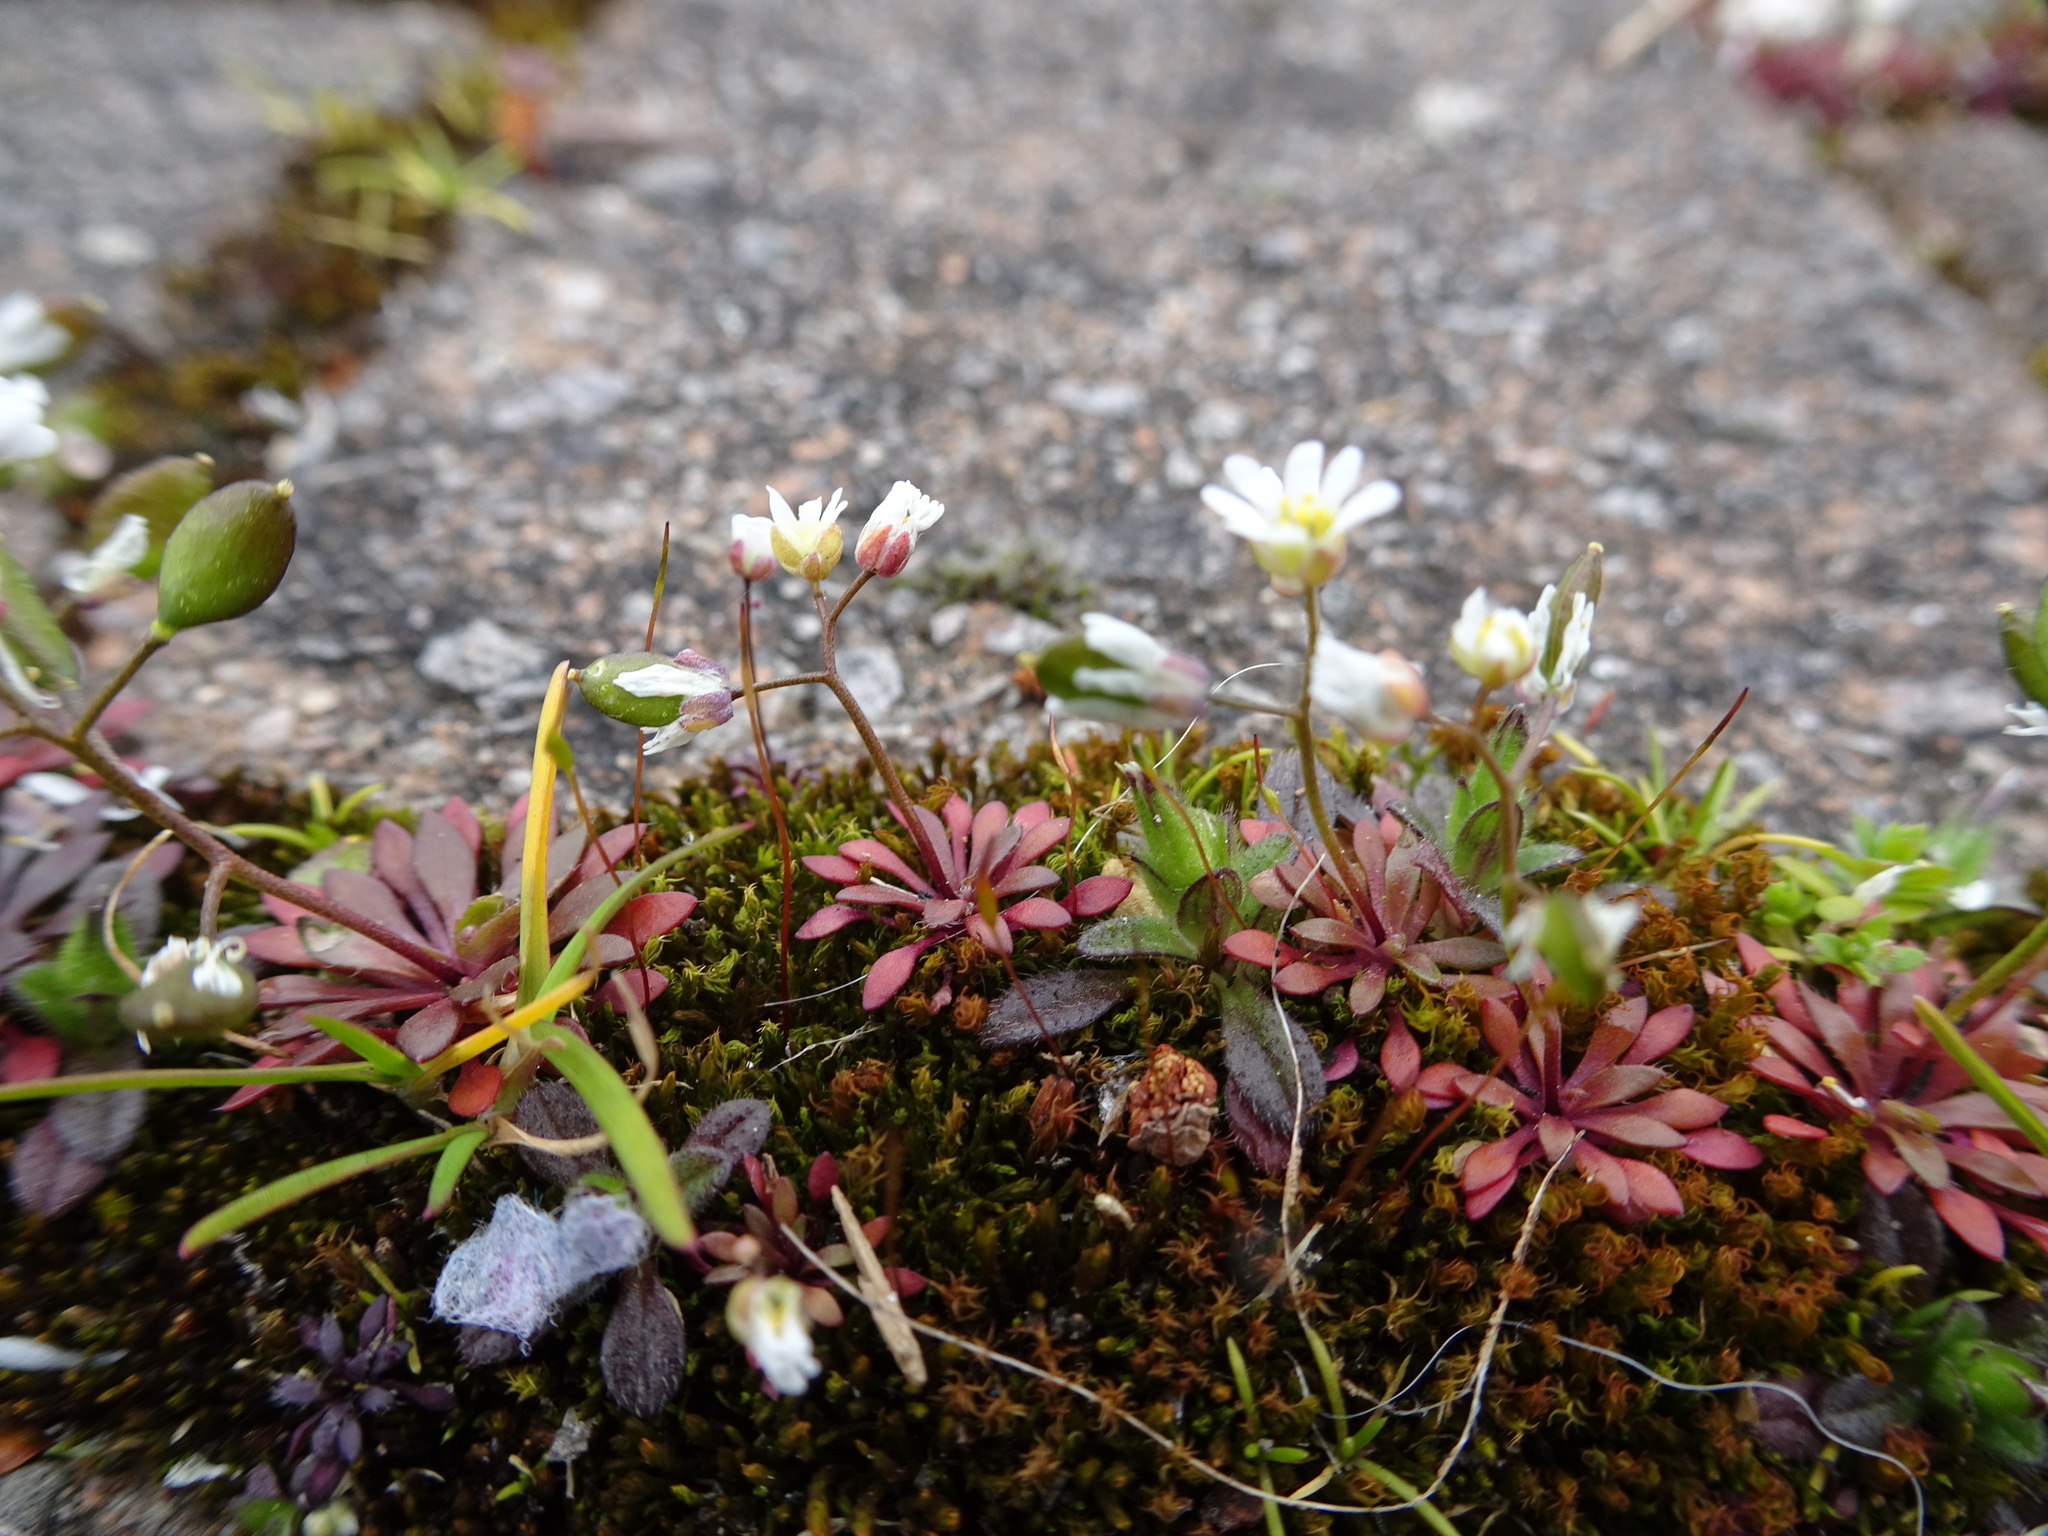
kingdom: Plantae
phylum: Tracheophyta
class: Magnoliopsida
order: Brassicales
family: Brassicaceae
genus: Draba
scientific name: Draba verna
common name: Spring draba
